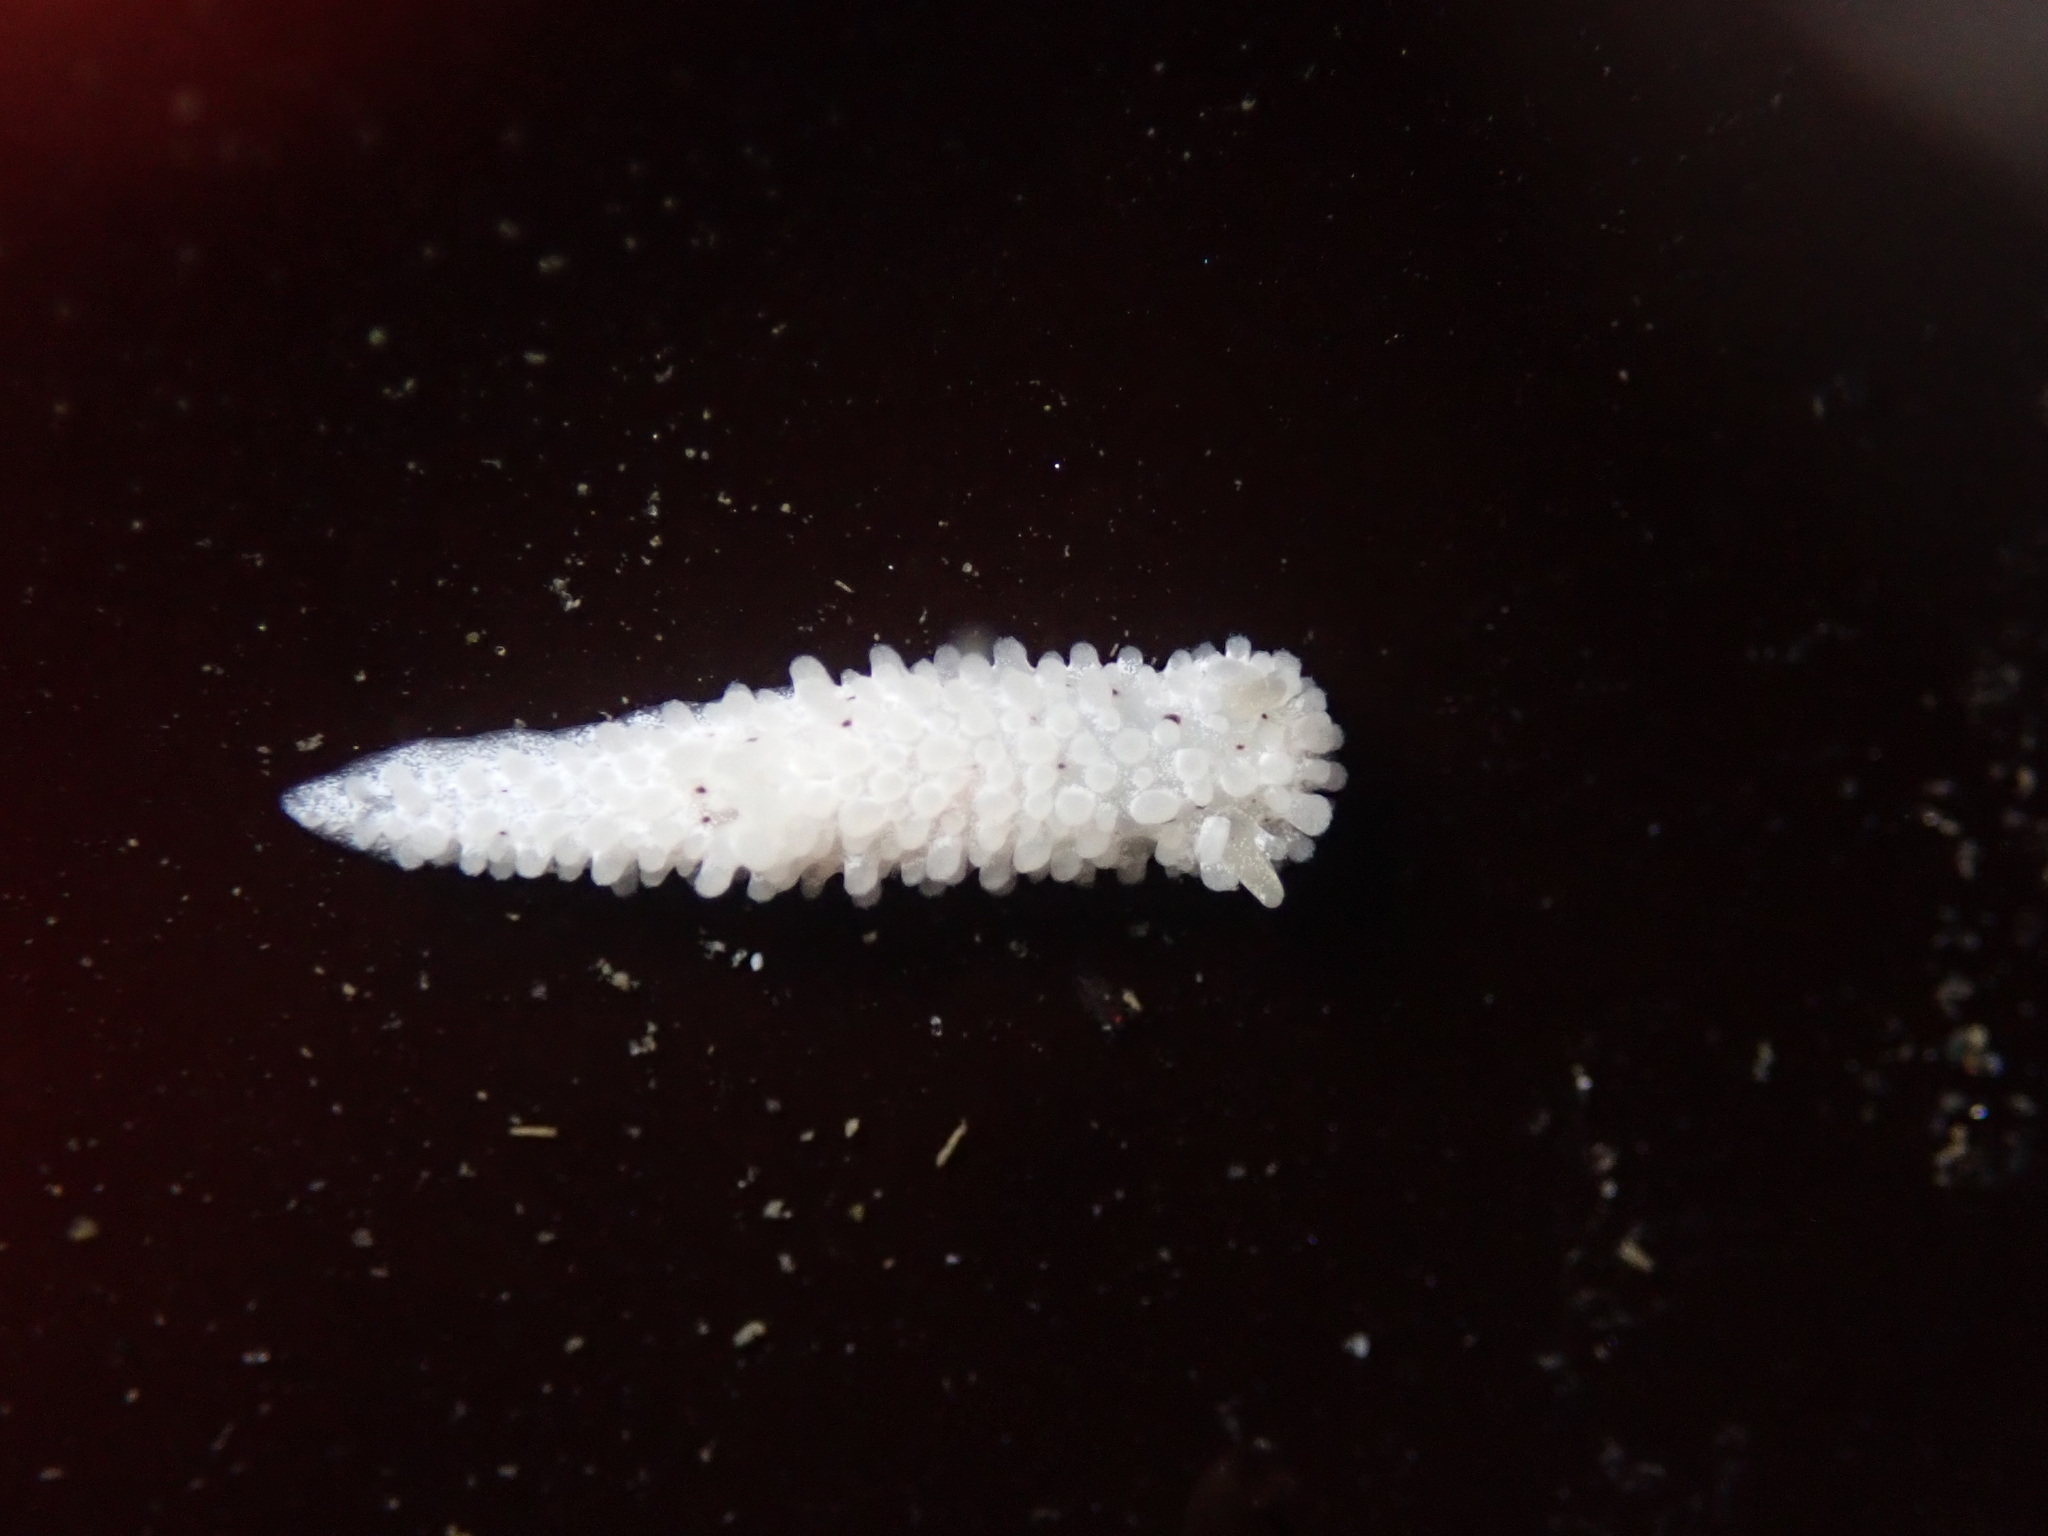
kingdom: Animalia
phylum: Mollusca
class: Gastropoda
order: Nudibranchia
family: Aegiridae
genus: Aegires
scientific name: Aegires albopunctatus
